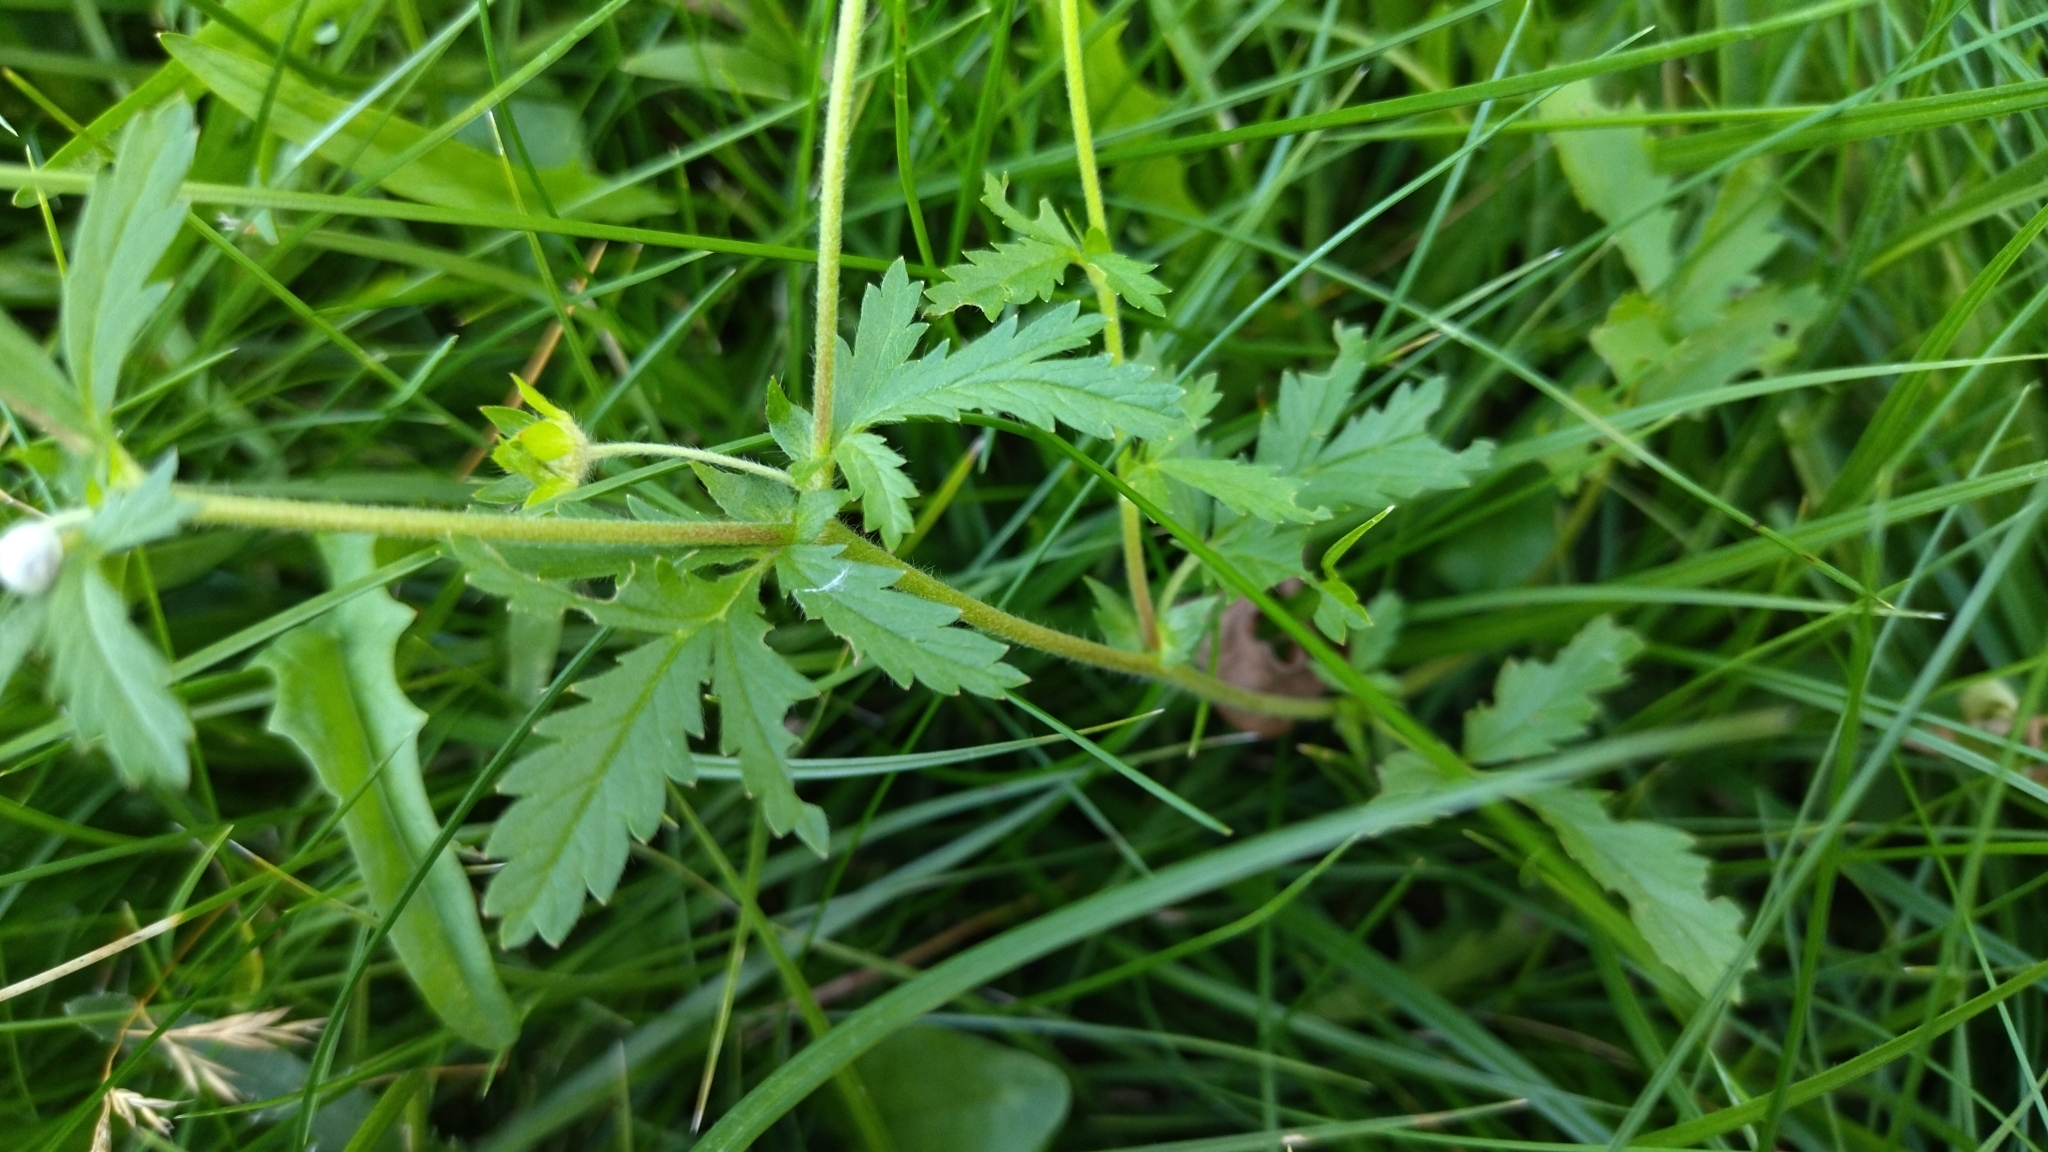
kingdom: Plantae
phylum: Tracheophyta
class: Magnoliopsida
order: Rosales
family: Rosaceae
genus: Potentilla
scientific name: Potentilla supina
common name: Prostrate cinquefoil
